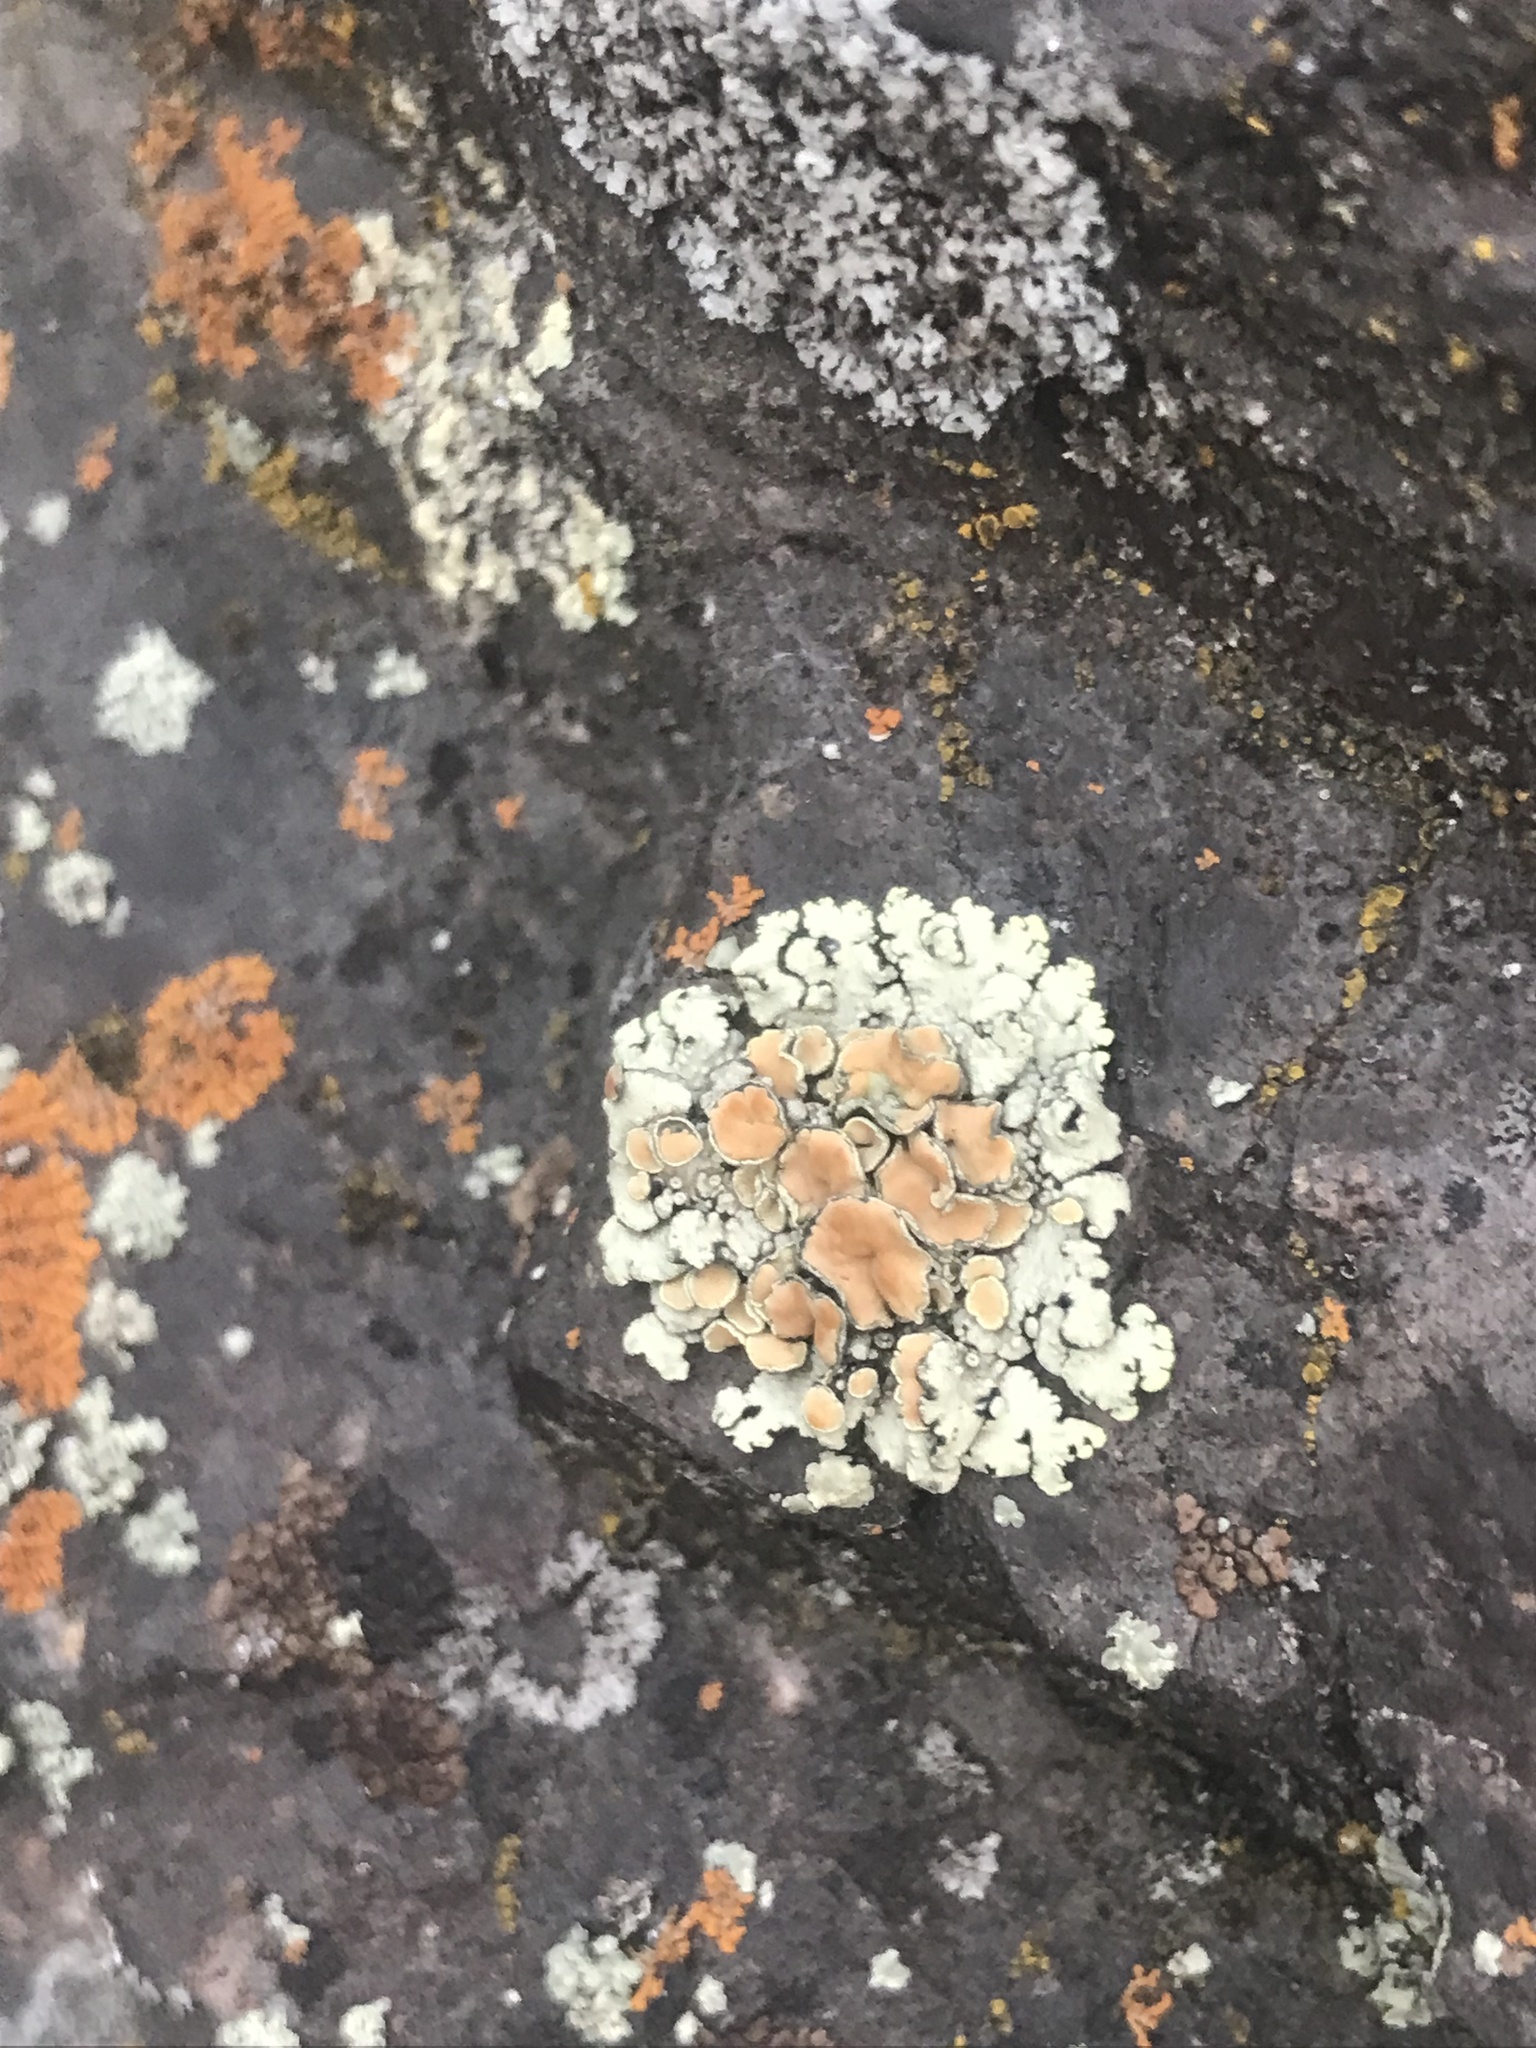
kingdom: Fungi
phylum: Ascomycota
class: Lecanoromycetes
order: Lecanorales
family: Lecanoraceae
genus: Omphalodina
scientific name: Omphalodina chrysoleuca
